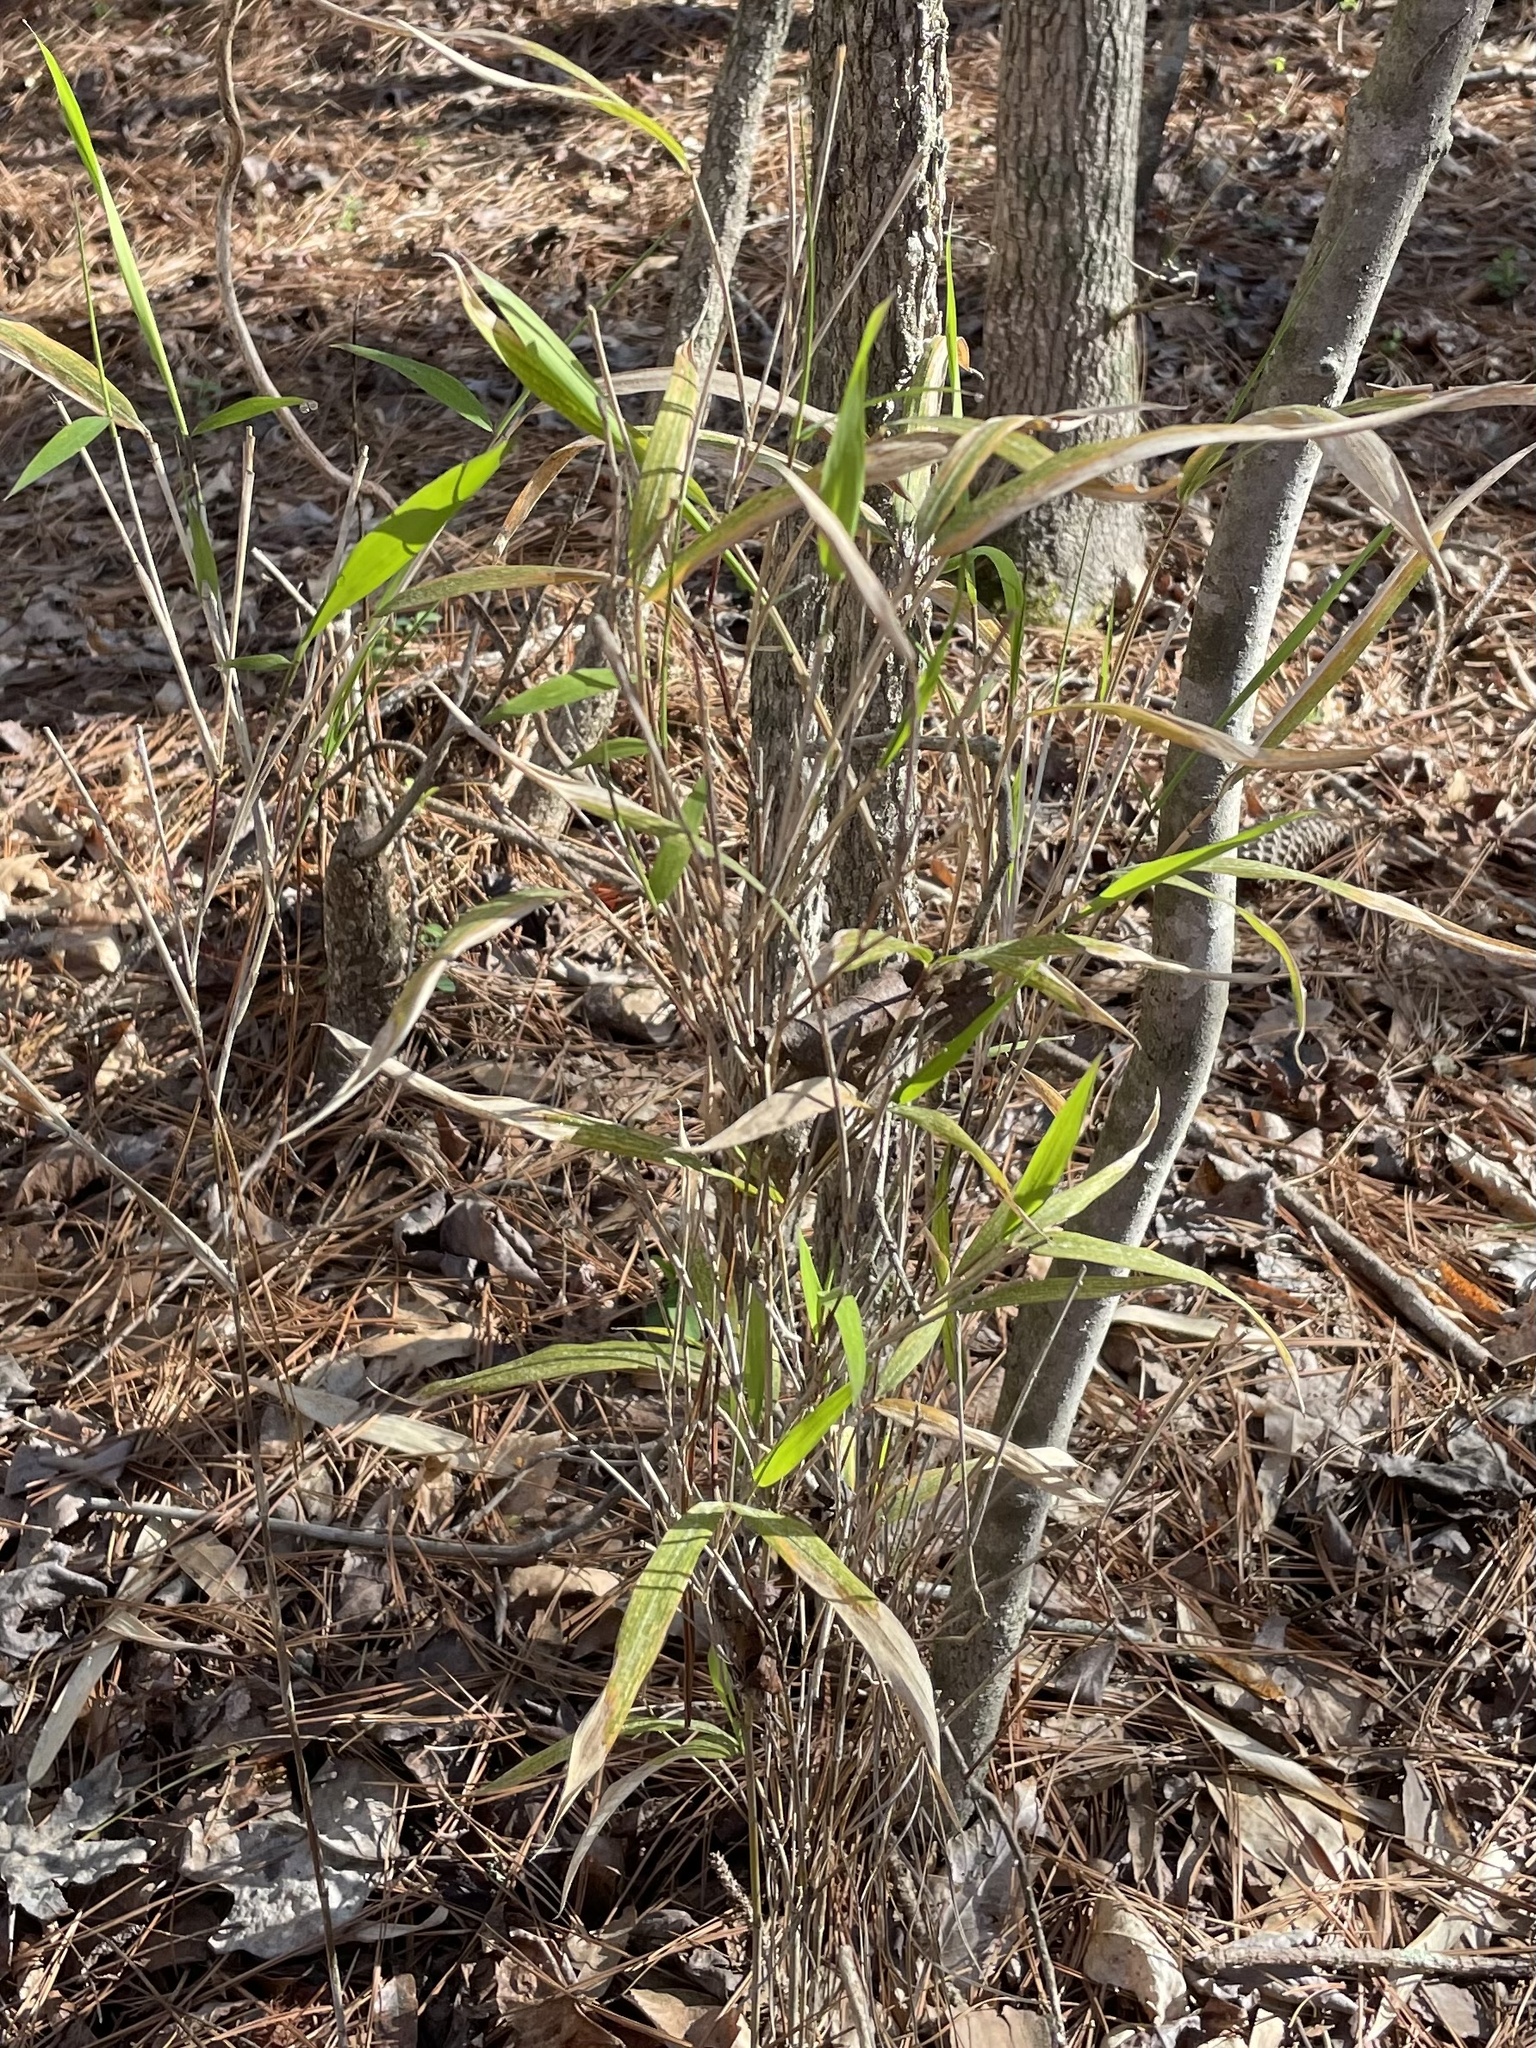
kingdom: Plantae
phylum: Tracheophyta
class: Liliopsida
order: Poales
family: Poaceae
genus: Arundinaria
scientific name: Arundinaria tecta
